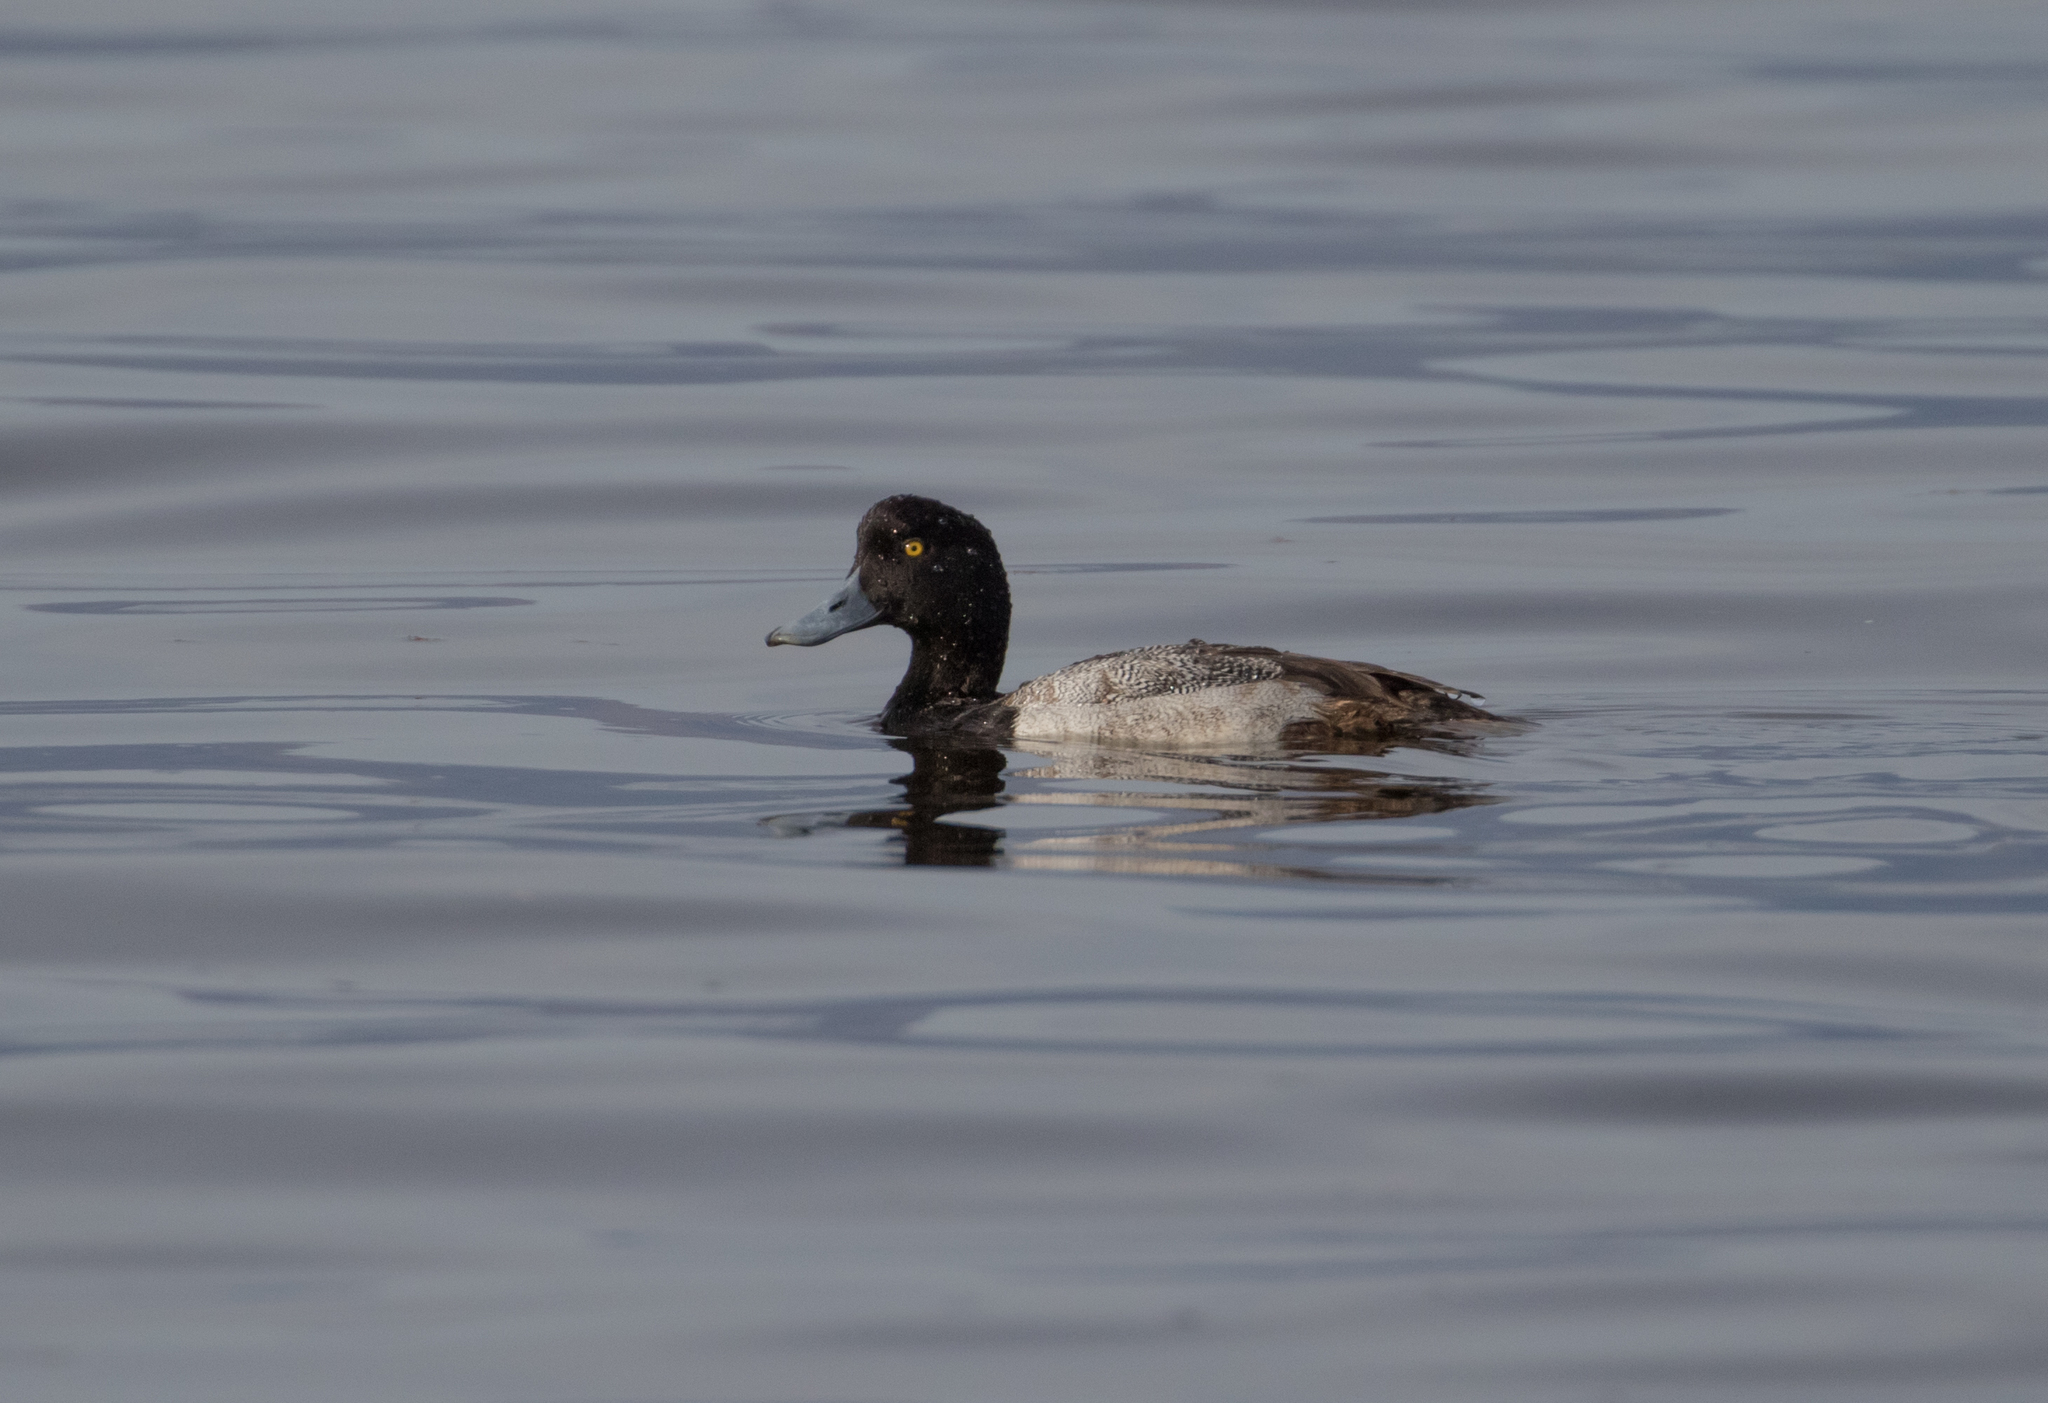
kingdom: Animalia
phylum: Chordata
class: Aves
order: Anseriformes
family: Anatidae
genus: Aythya
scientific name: Aythya affinis
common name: Lesser scaup
